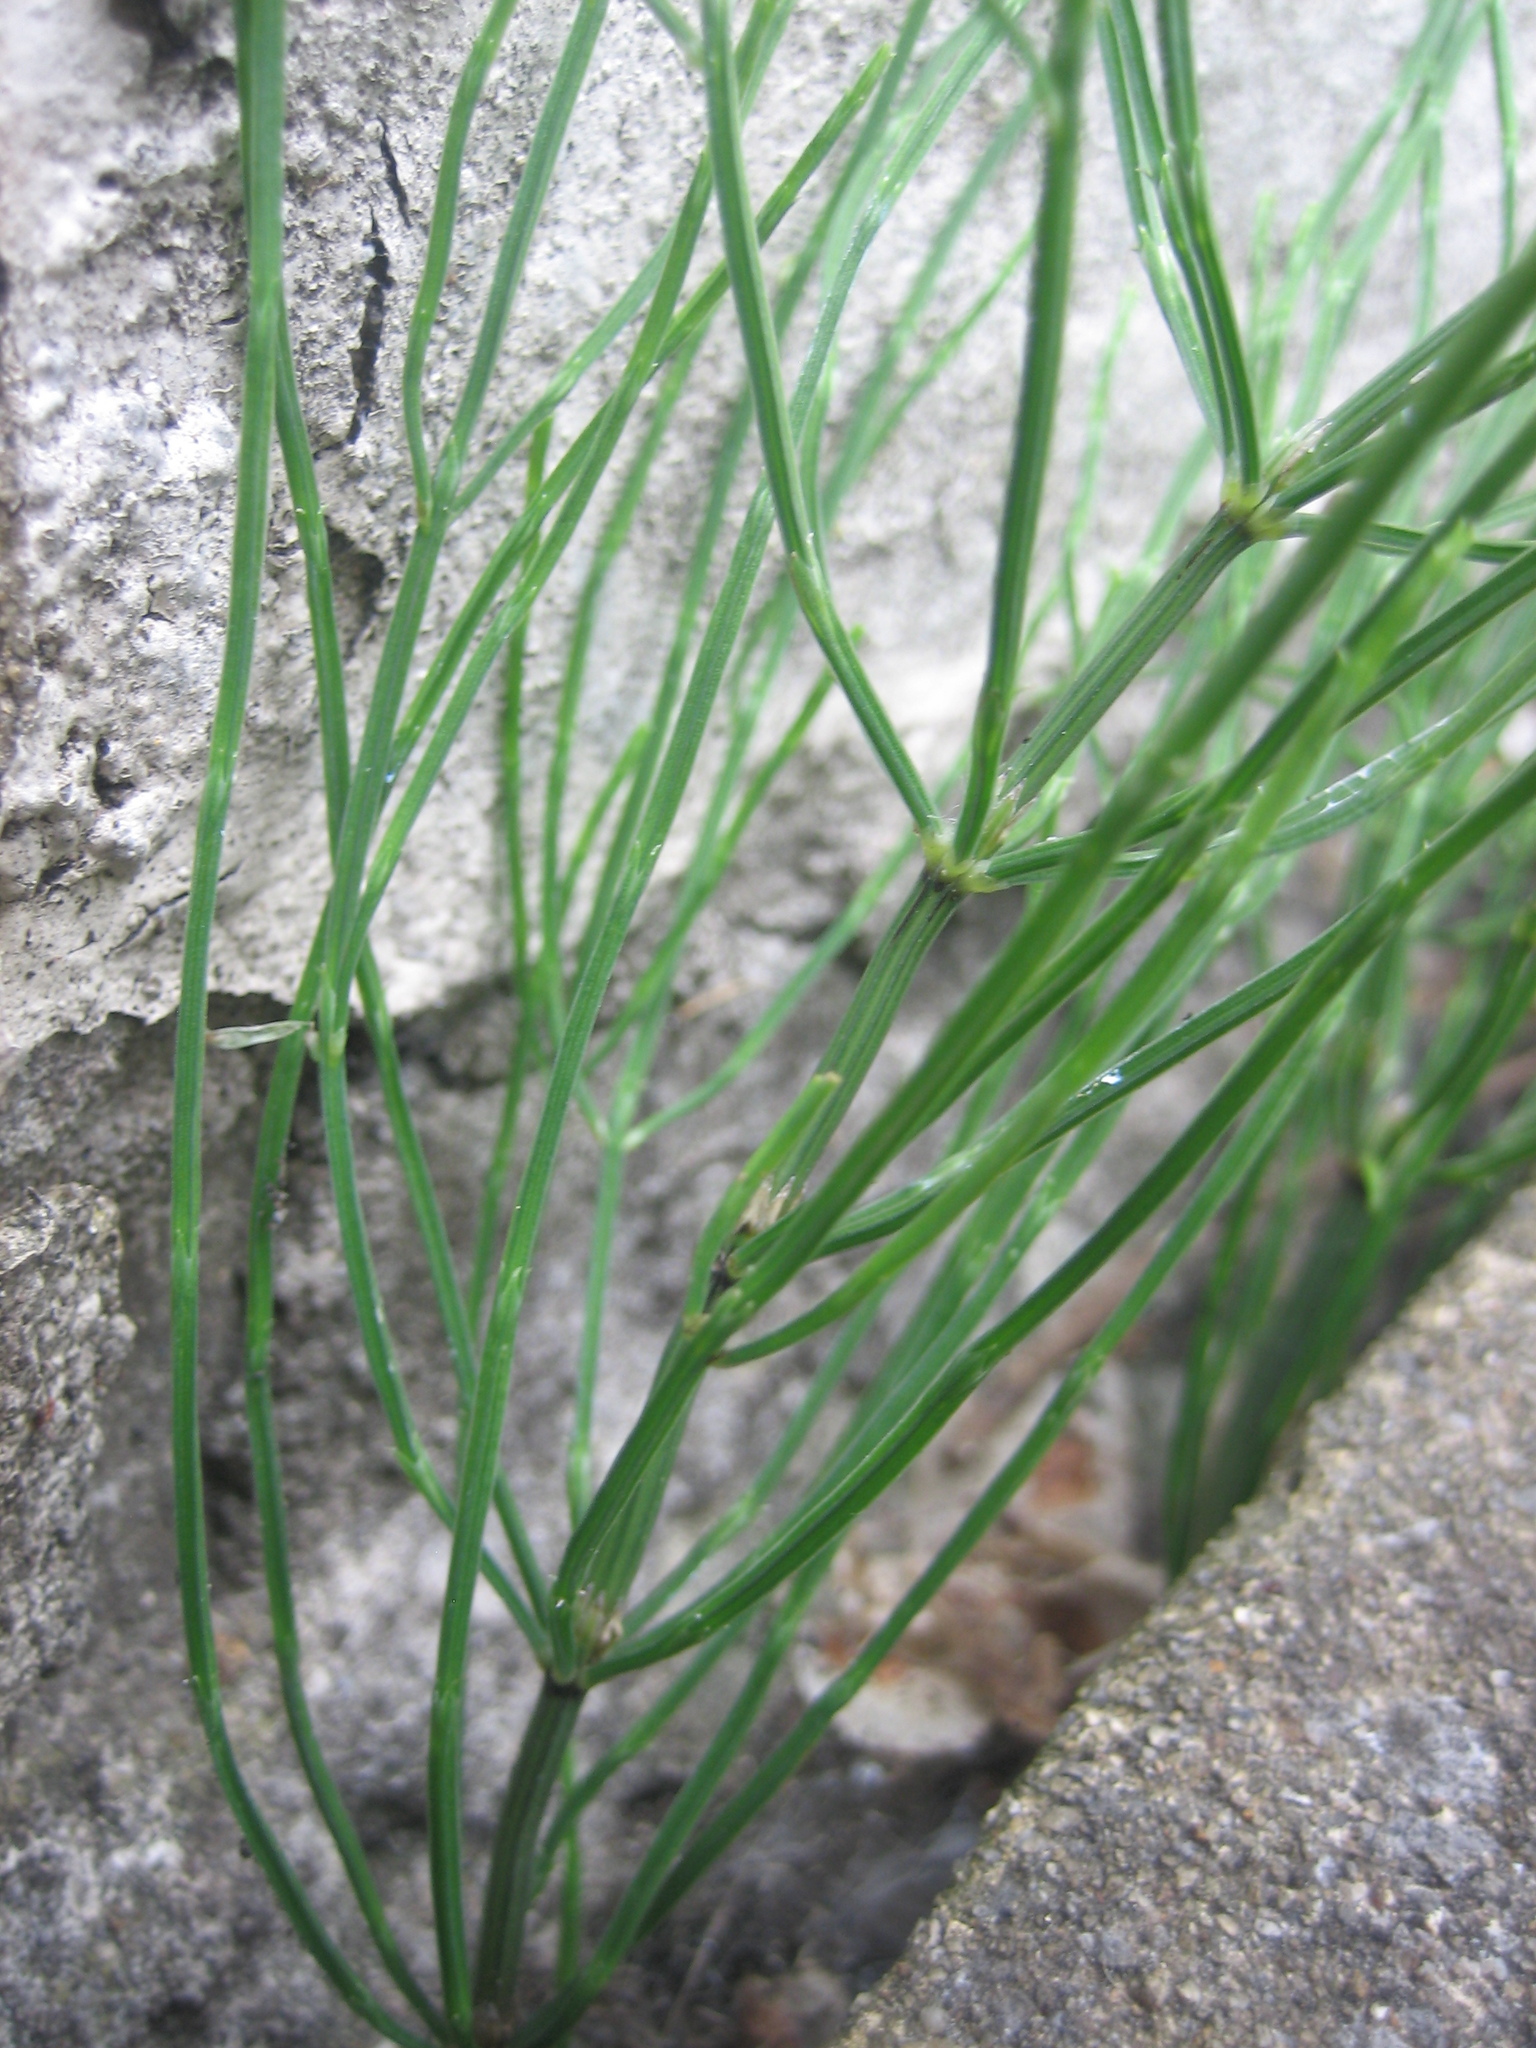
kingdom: Plantae
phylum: Tracheophyta
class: Polypodiopsida
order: Equisetales
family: Equisetaceae
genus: Equisetum
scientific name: Equisetum arvense
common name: Field horsetail
